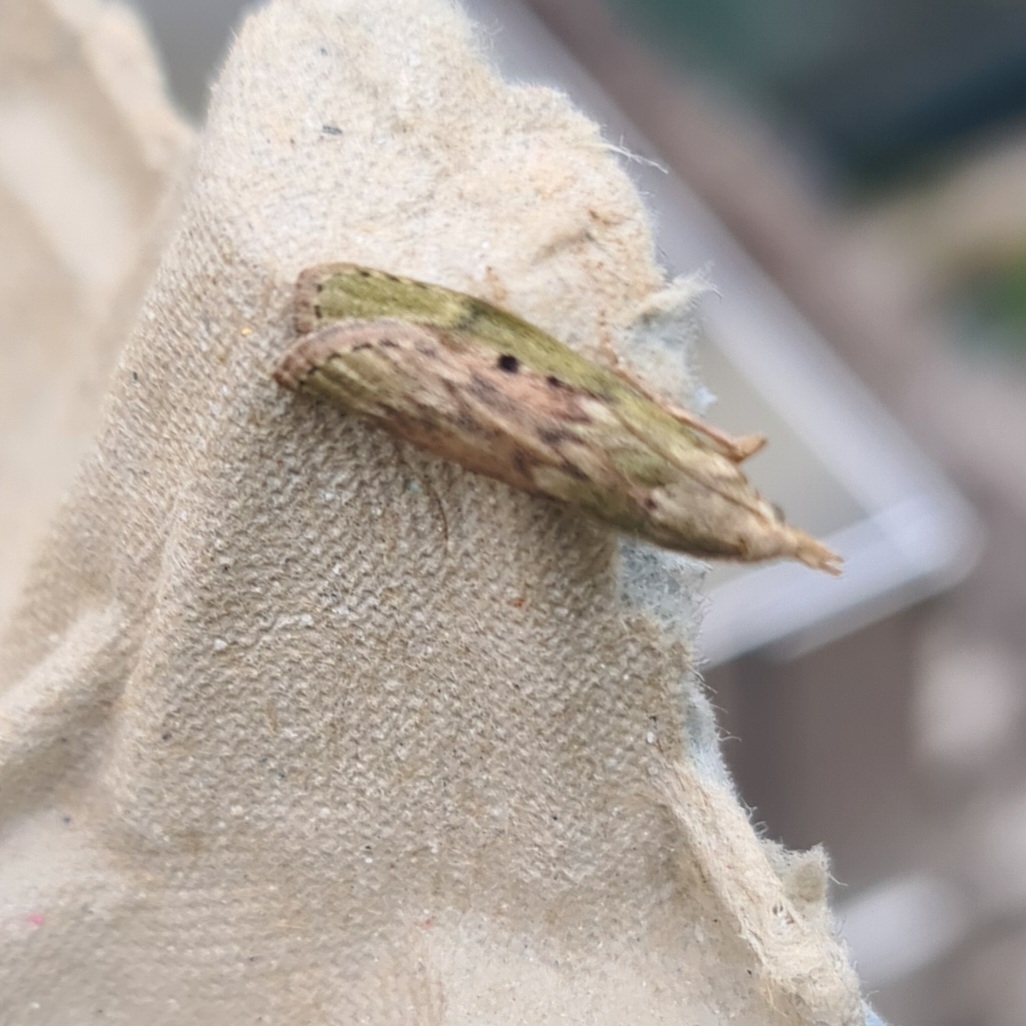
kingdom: Animalia
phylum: Arthropoda
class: Insecta
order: Lepidoptera
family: Pyralidae
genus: Aphomia
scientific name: Aphomia sociella
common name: Bee moth
